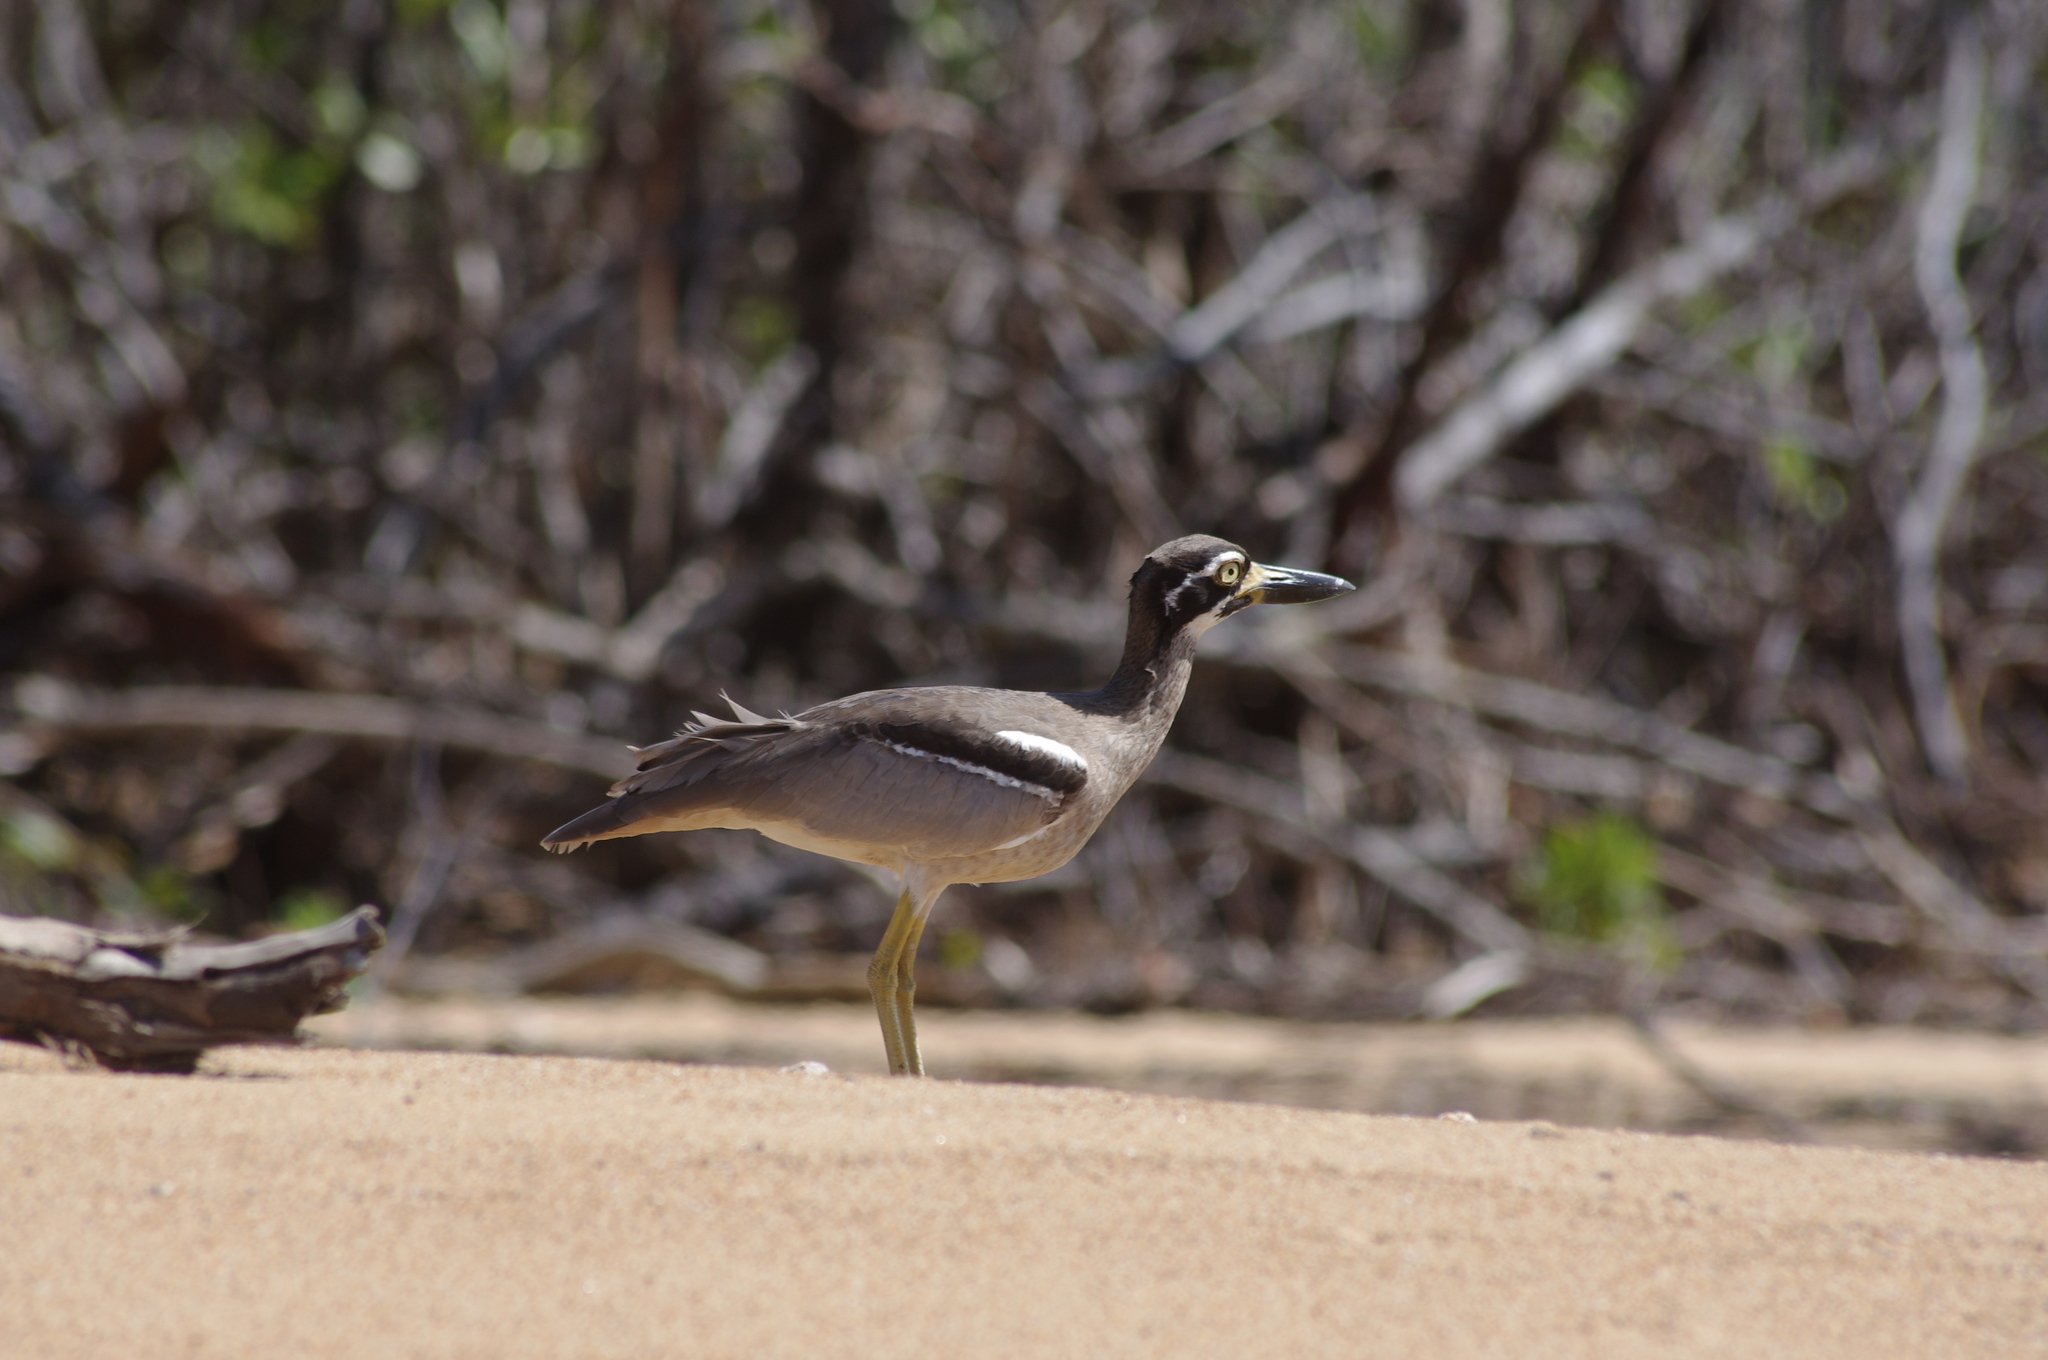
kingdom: Animalia
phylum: Chordata
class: Aves
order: Charadriiformes
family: Burhinidae
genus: Esacus
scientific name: Esacus magnirostris
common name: Beach stone-curlew
